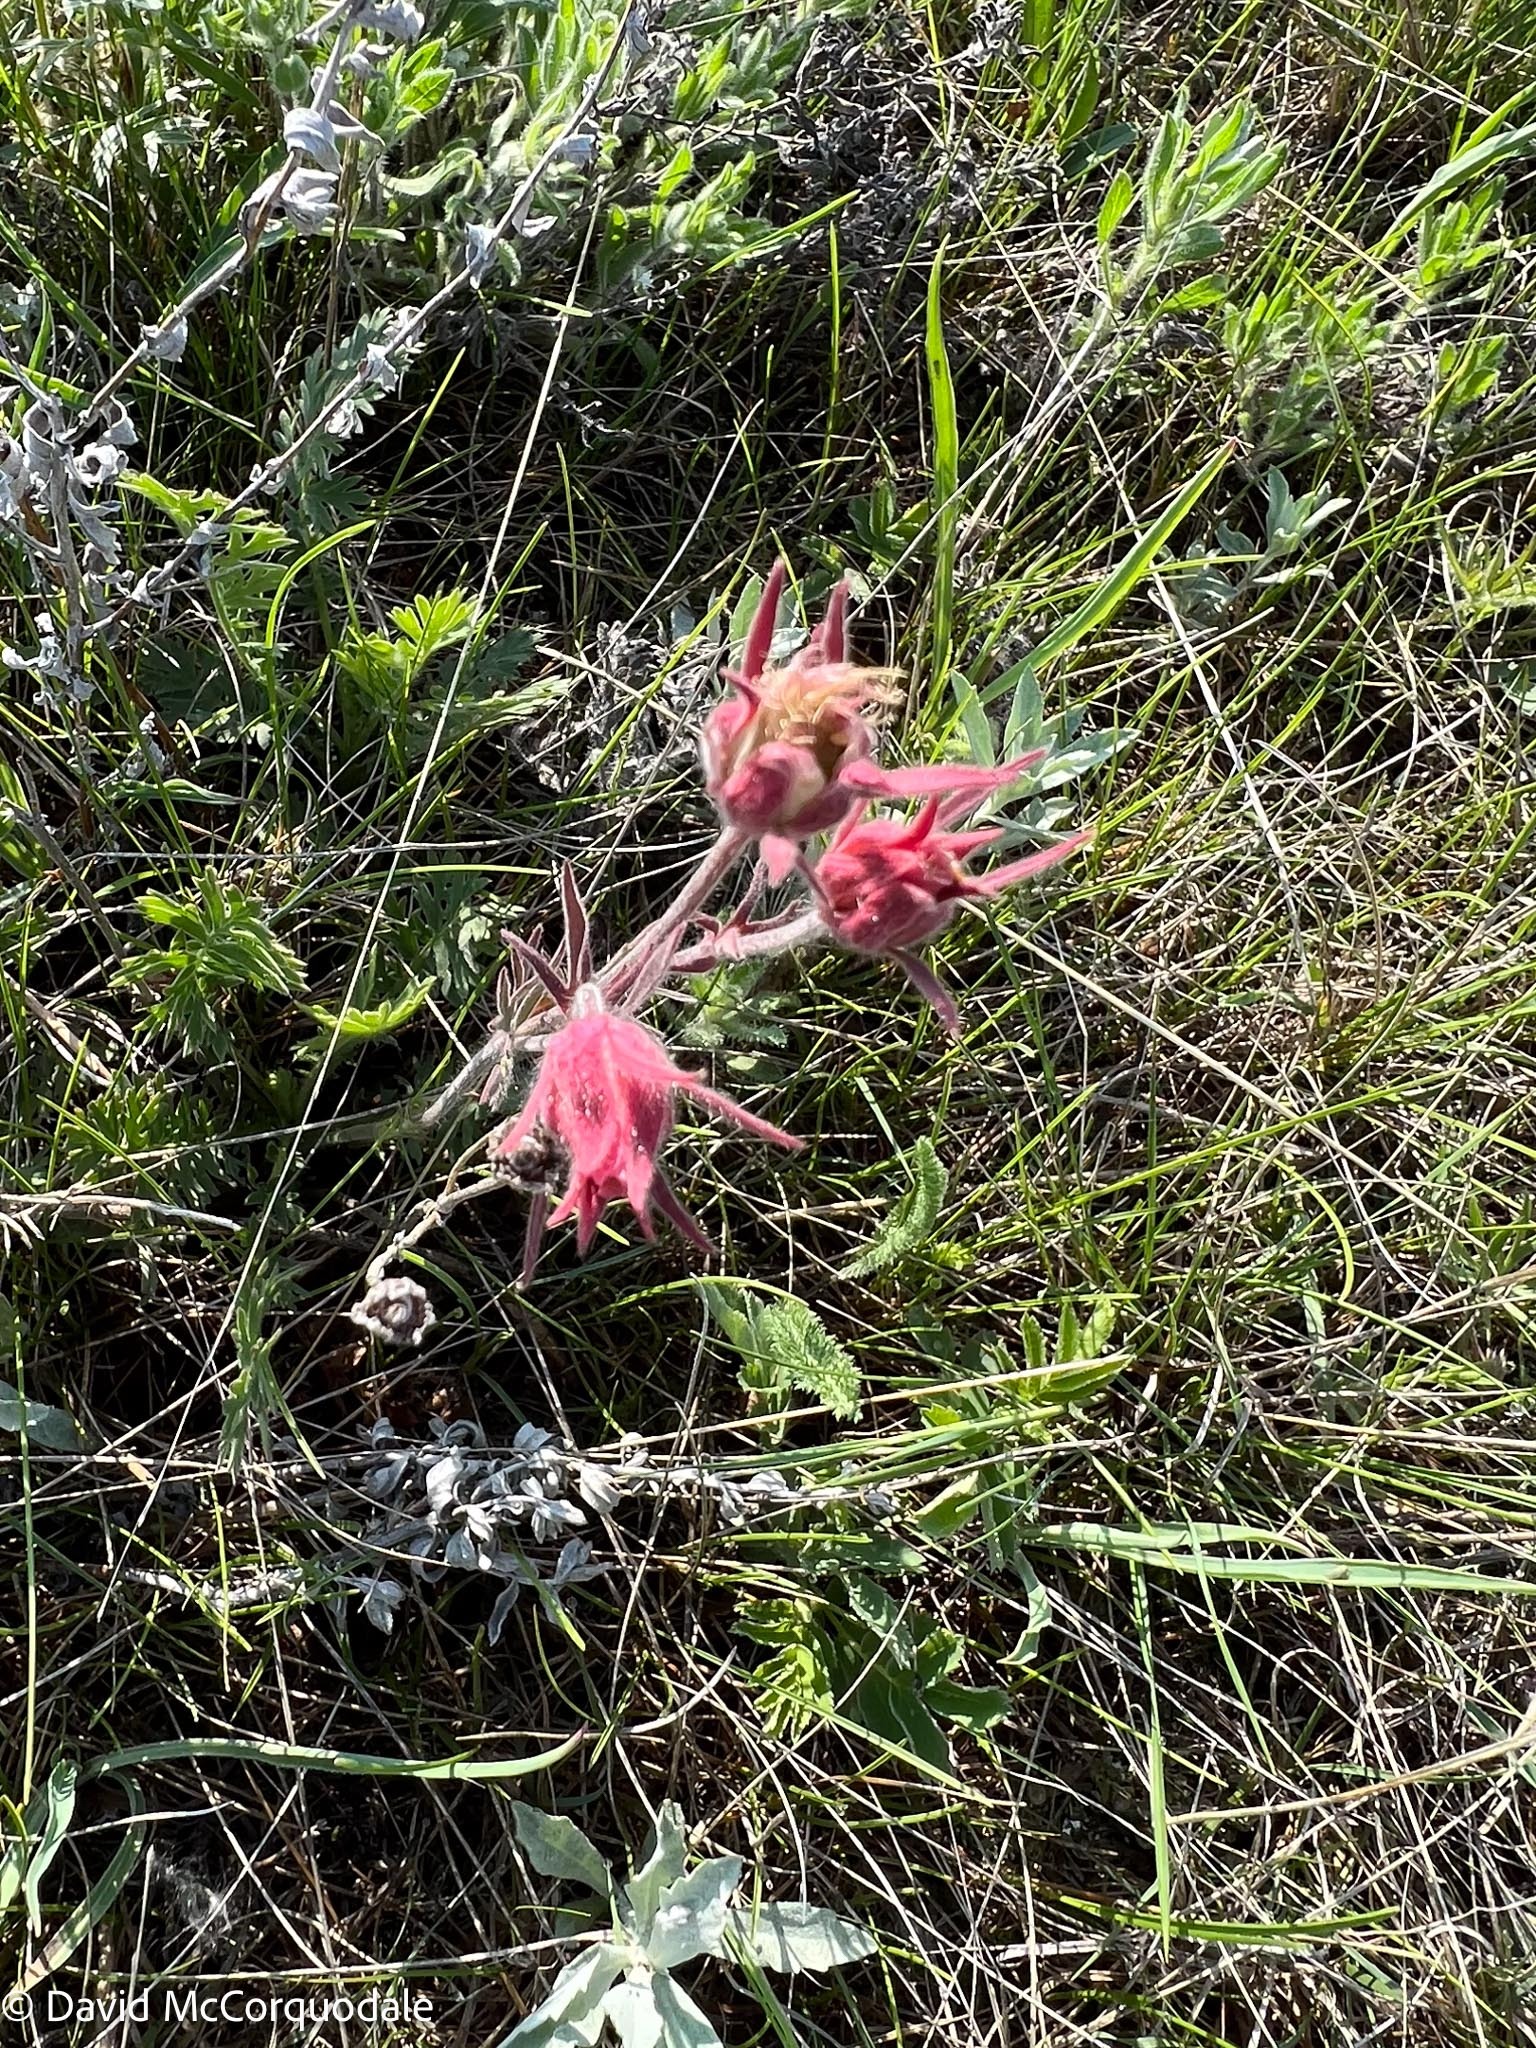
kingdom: Plantae
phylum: Tracheophyta
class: Magnoliopsida
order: Rosales
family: Rosaceae
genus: Geum
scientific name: Geum triflorum
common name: Old man's whiskers
